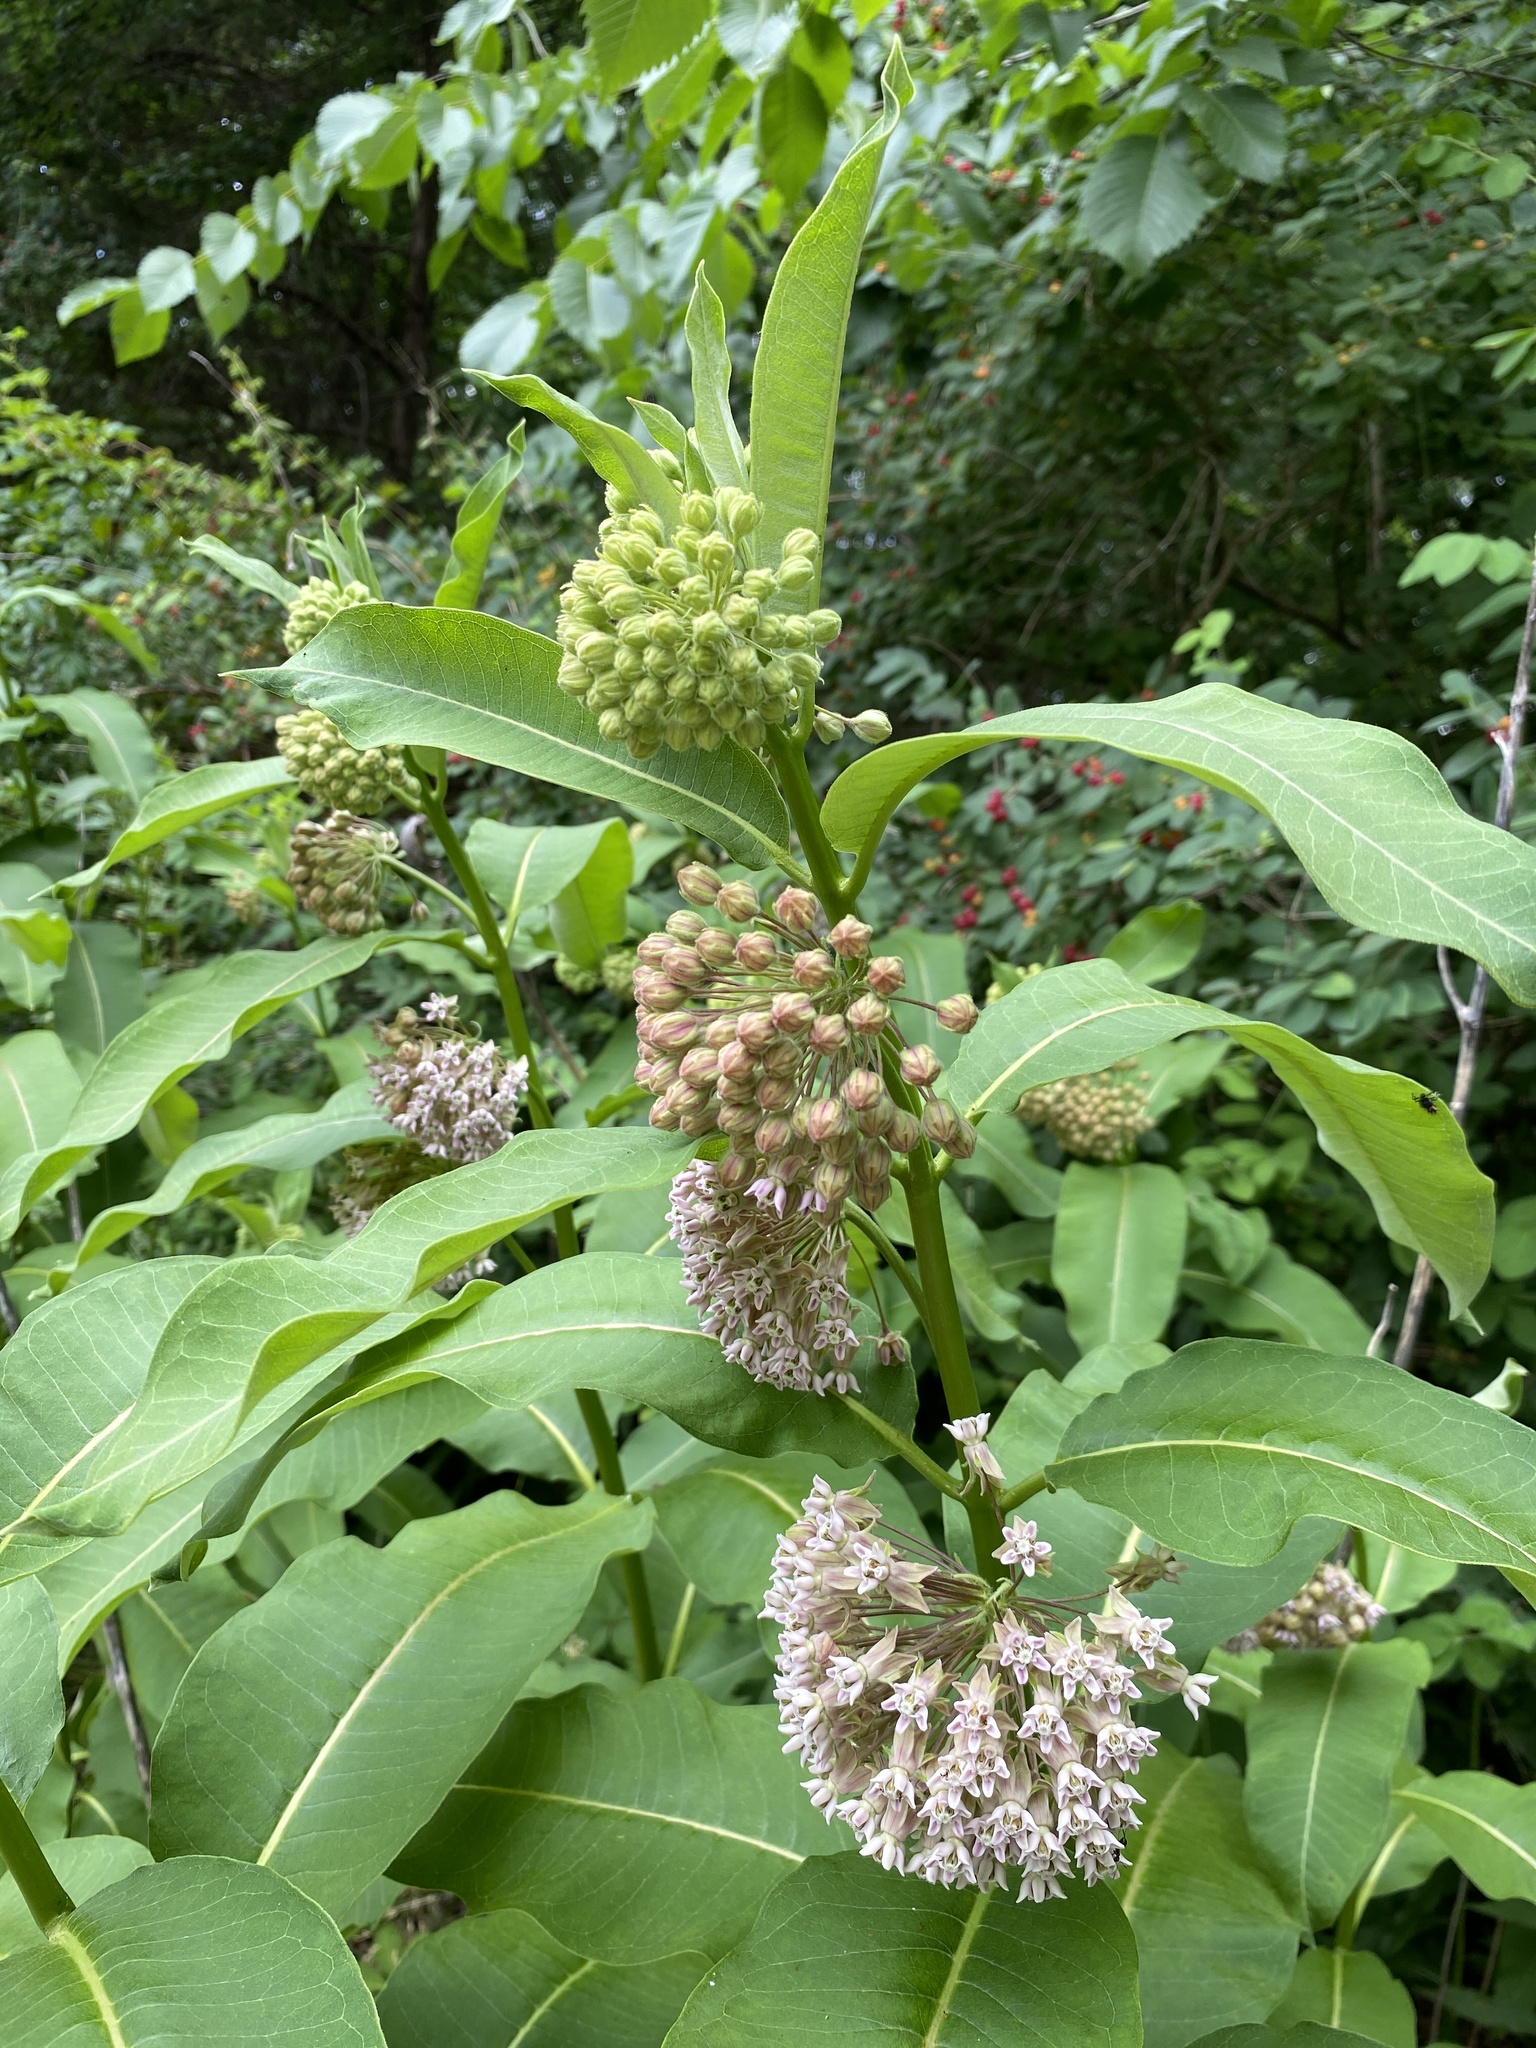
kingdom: Plantae
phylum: Tracheophyta
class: Magnoliopsida
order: Gentianales
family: Apocynaceae
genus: Asclepias
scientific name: Asclepias syriaca
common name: Common milkweed
